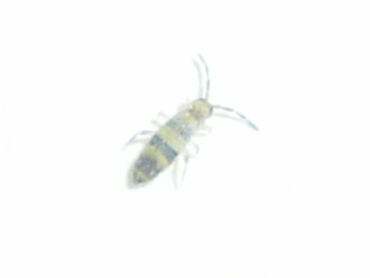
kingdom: Animalia
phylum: Arthropoda
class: Collembola
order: Entomobryomorpha
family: Entomobryidae
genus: Entomobrya
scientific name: Entomobrya assuta
